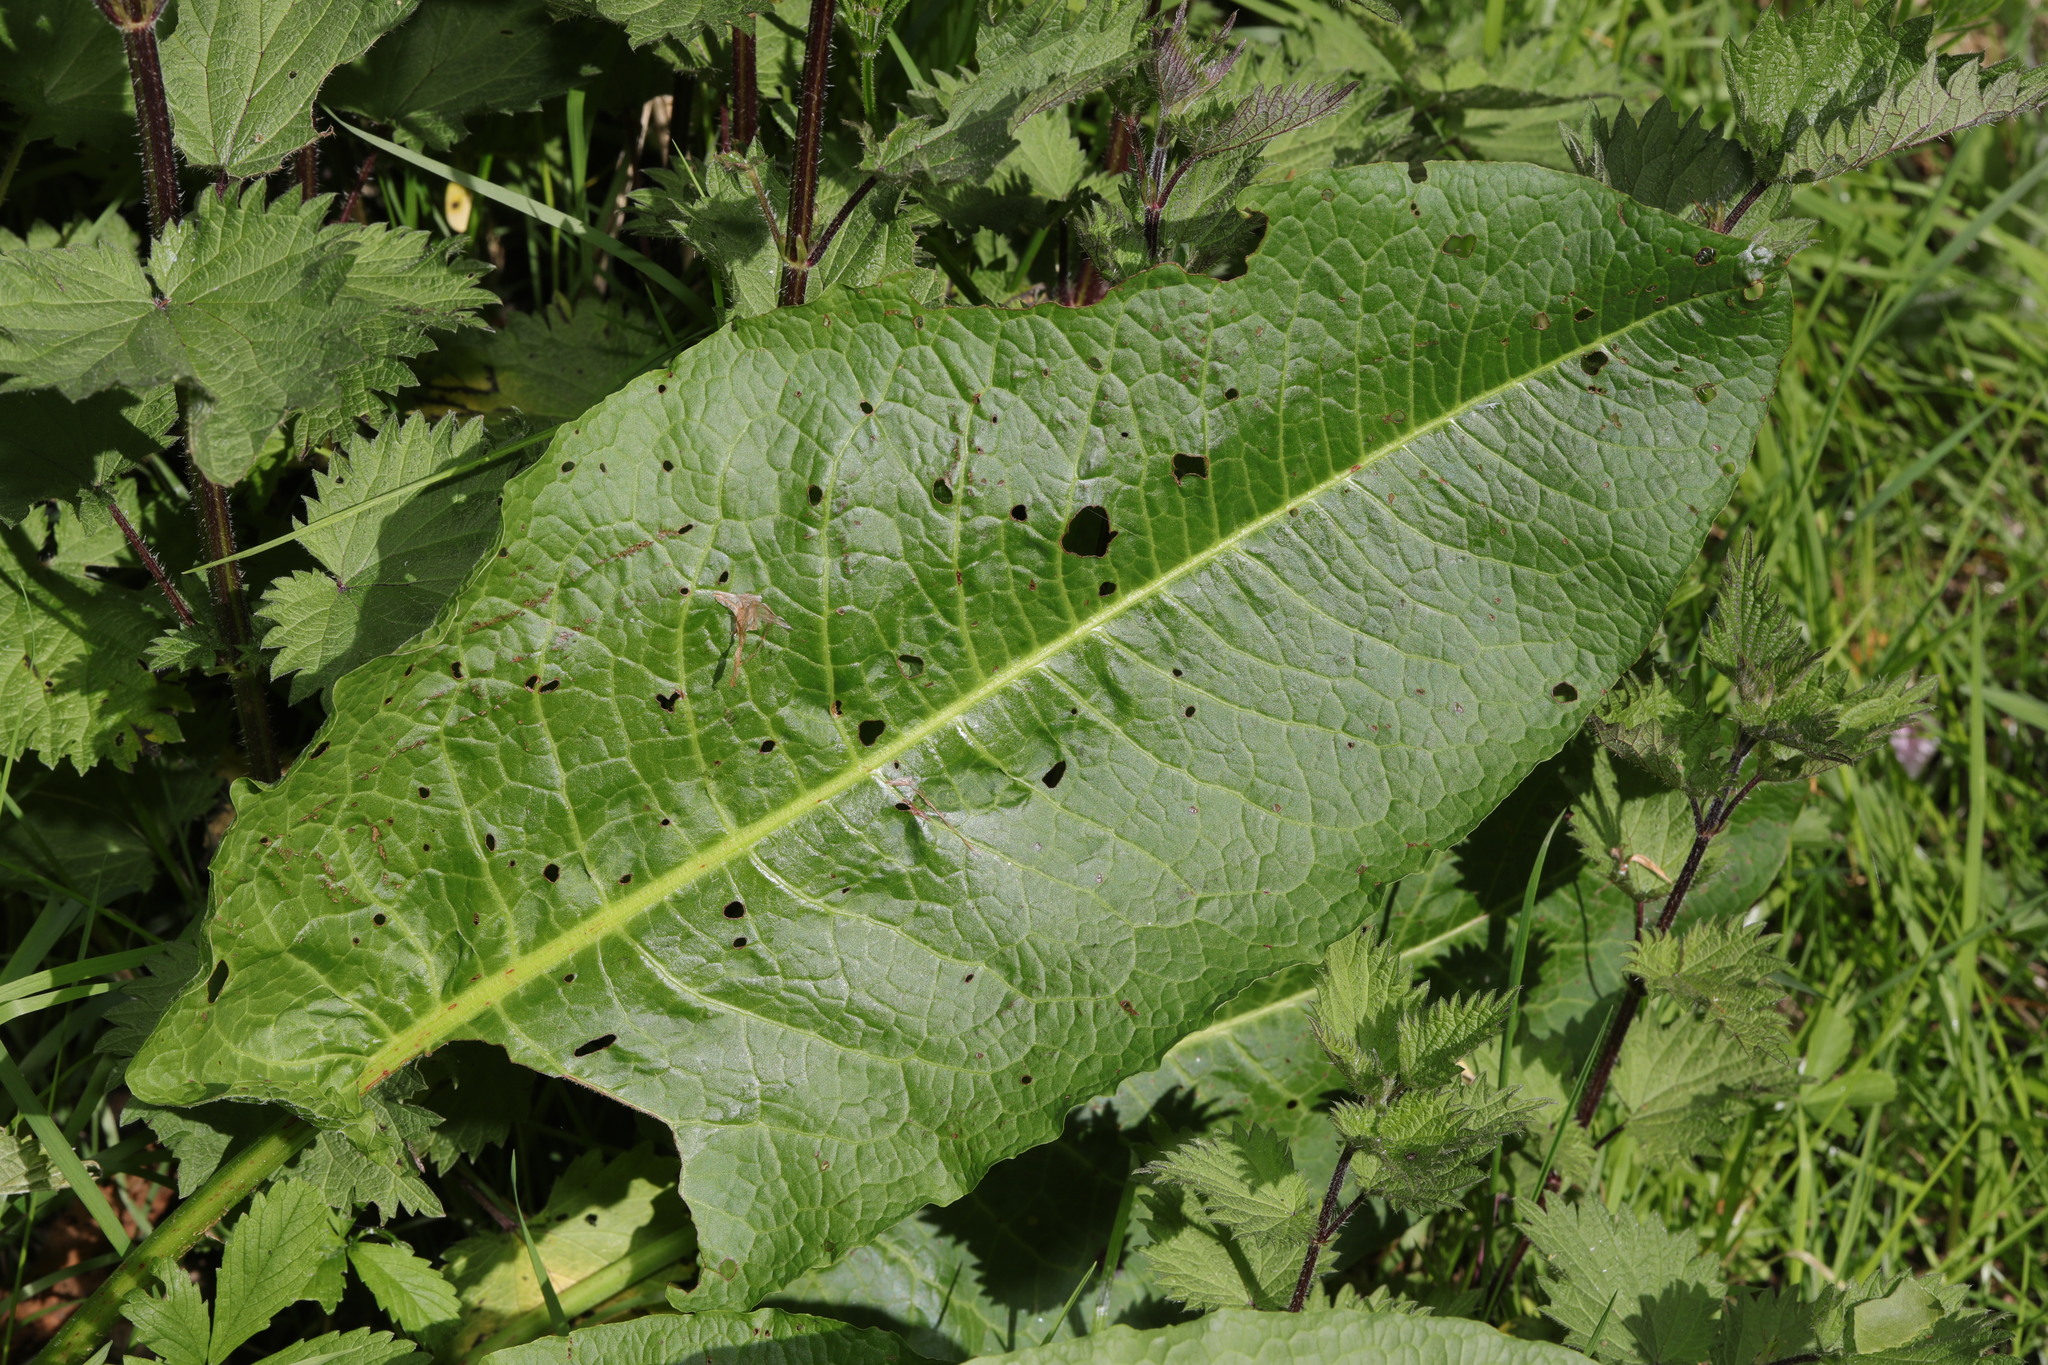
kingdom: Plantae
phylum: Tracheophyta
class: Magnoliopsida
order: Caryophyllales
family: Polygonaceae
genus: Rumex
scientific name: Rumex obtusifolius
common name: Bitter dock
